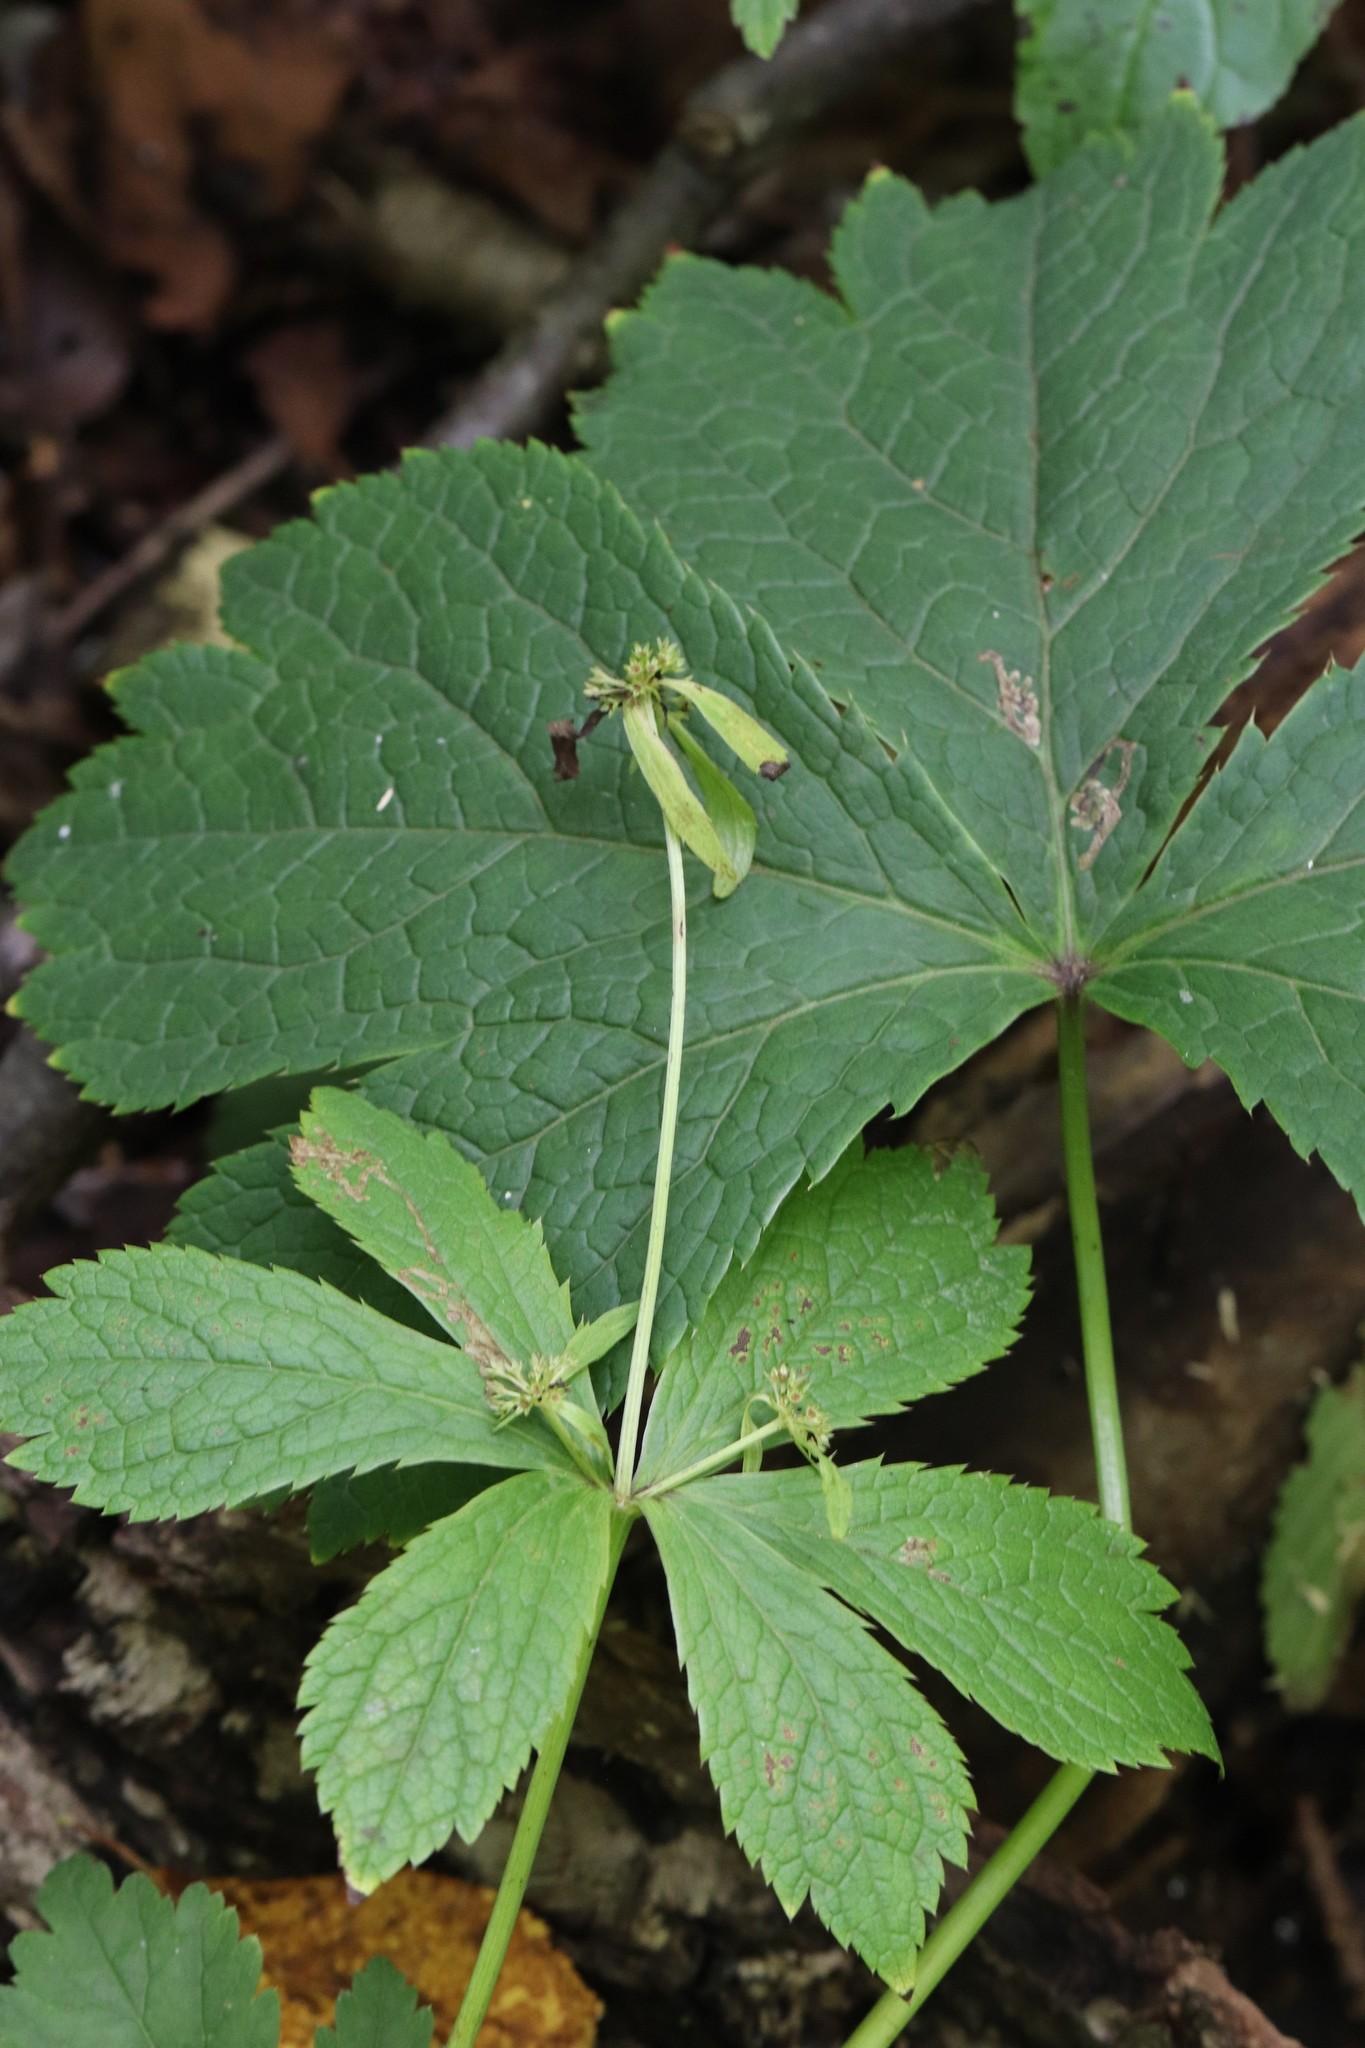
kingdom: Plantae
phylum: Tracheophyta
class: Magnoliopsida
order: Apiales
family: Apiaceae
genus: Sanicula
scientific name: Sanicula rubriflora
